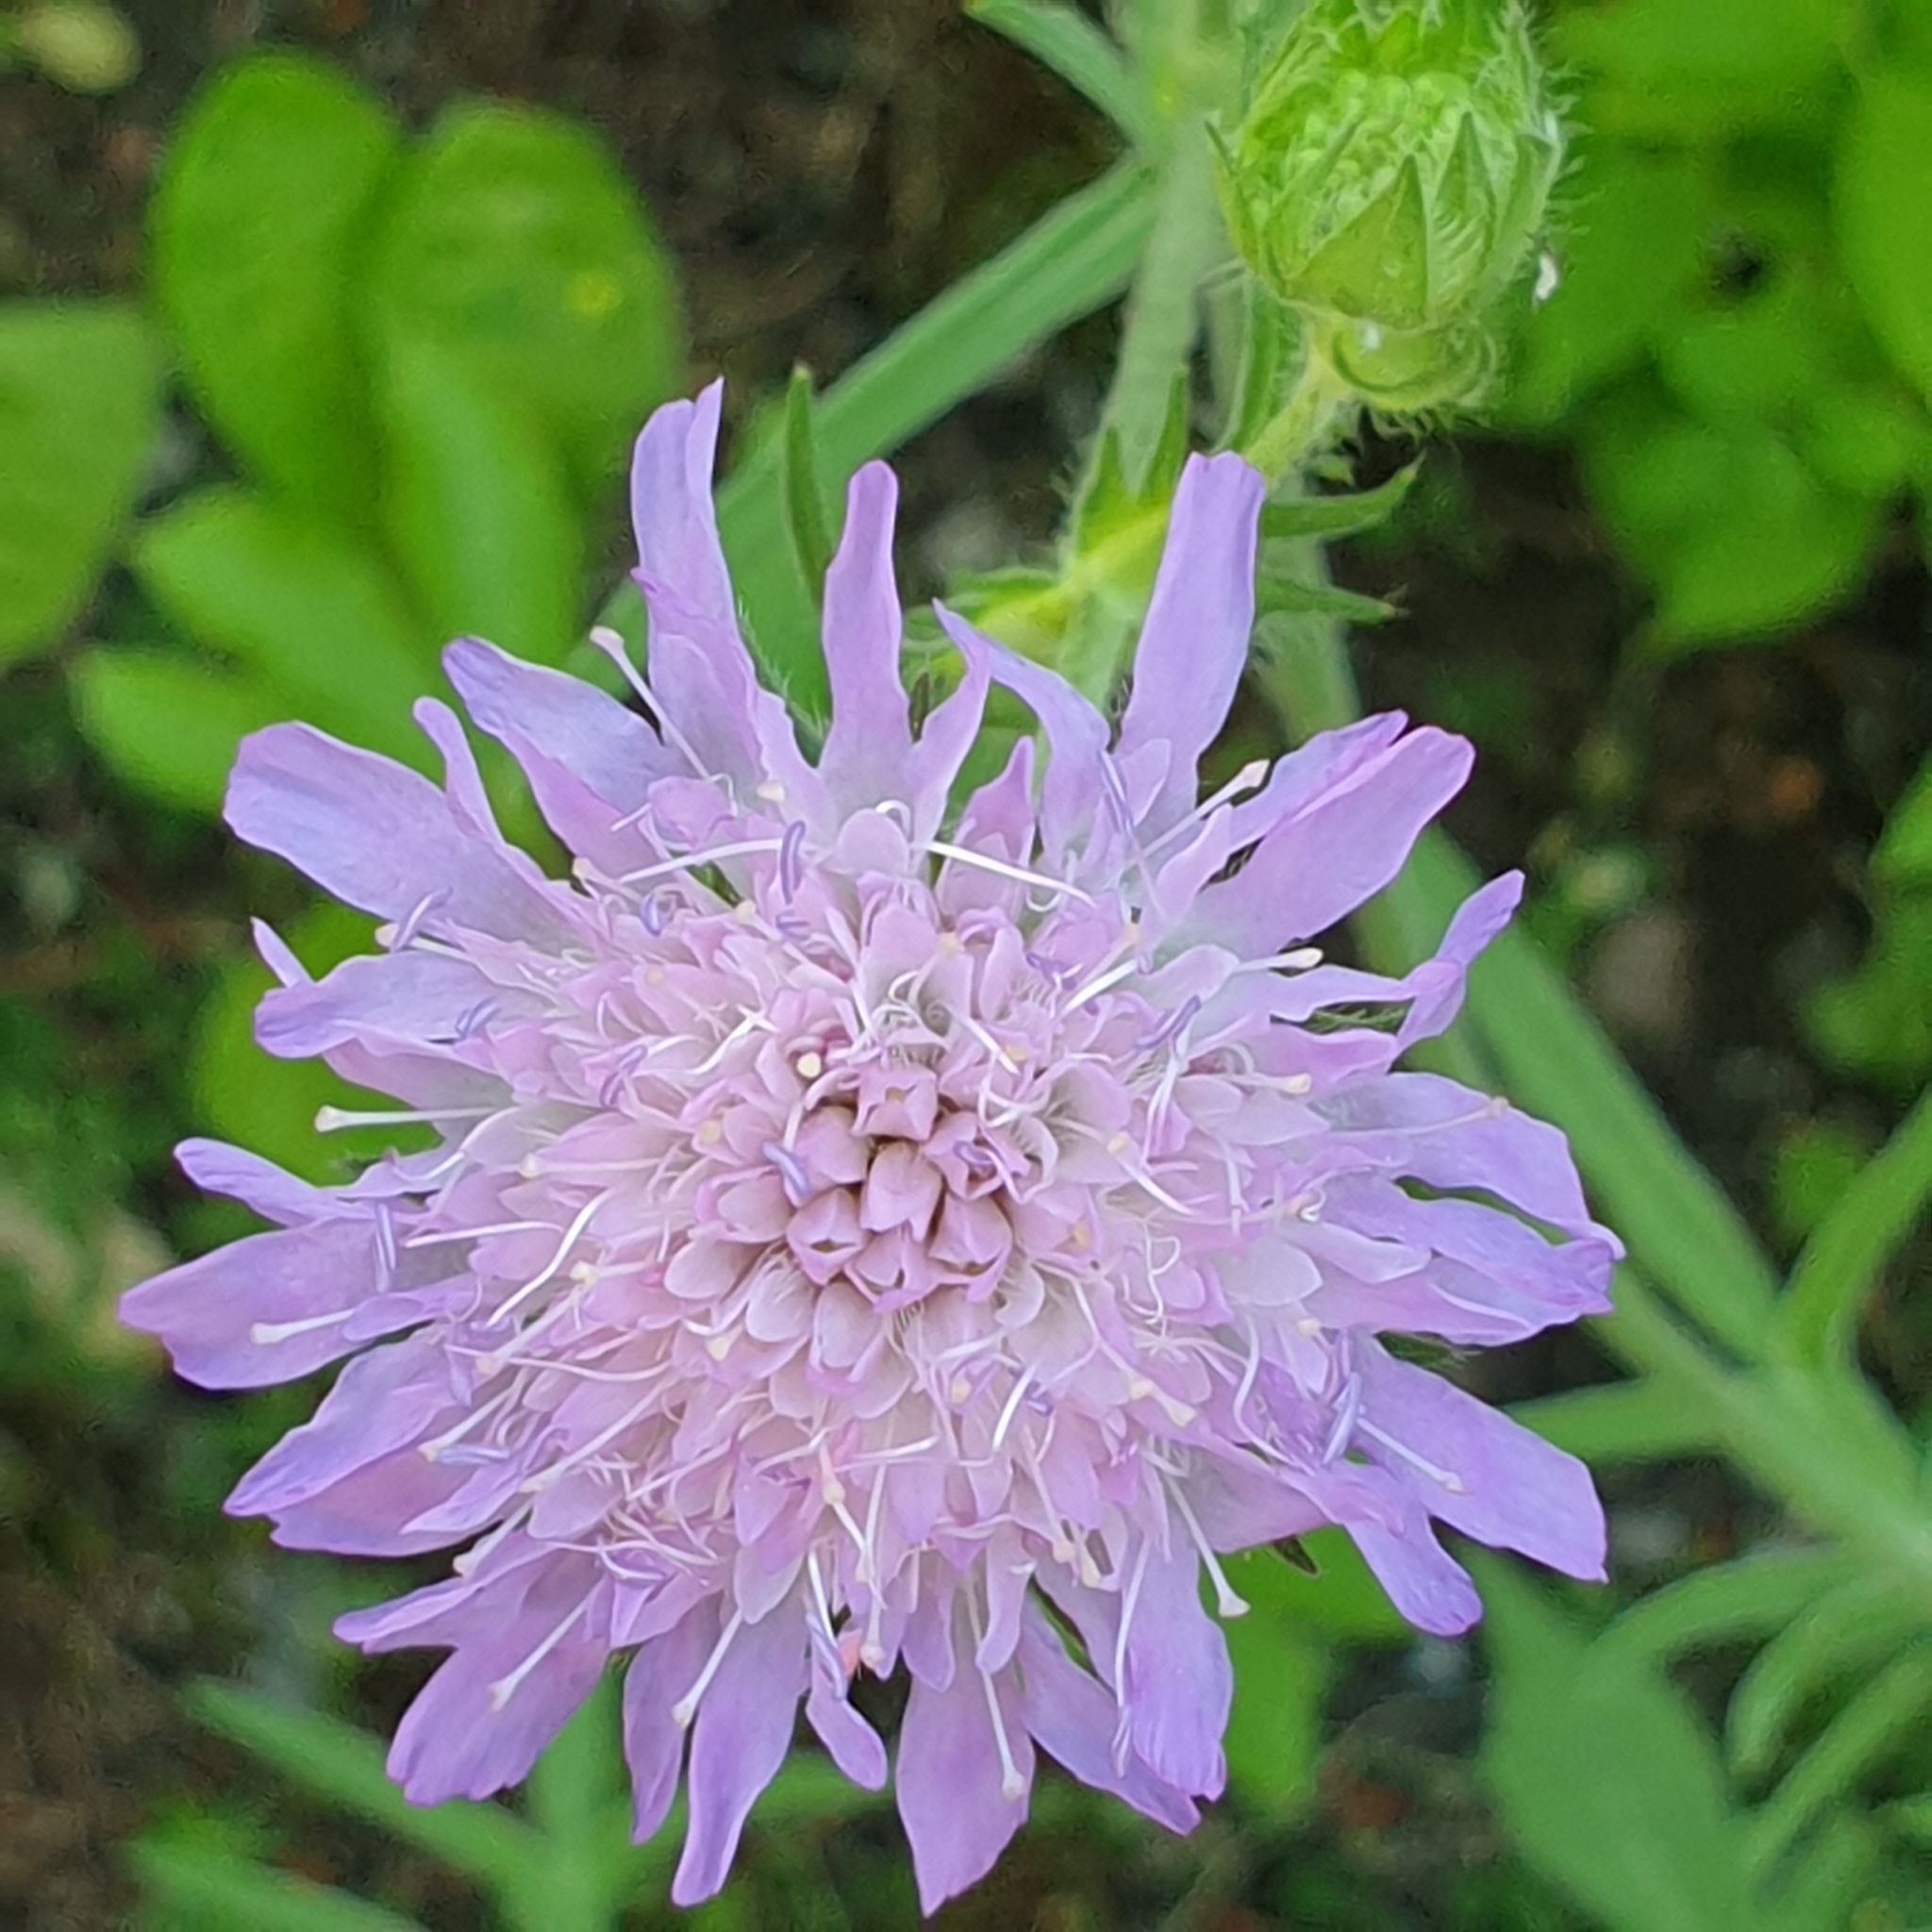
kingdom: Plantae
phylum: Tracheophyta
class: Magnoliopsida
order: Dipsacales
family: Caprifoliaceae
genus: Knautia
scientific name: Knautia arvensis
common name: Field scabiosa
